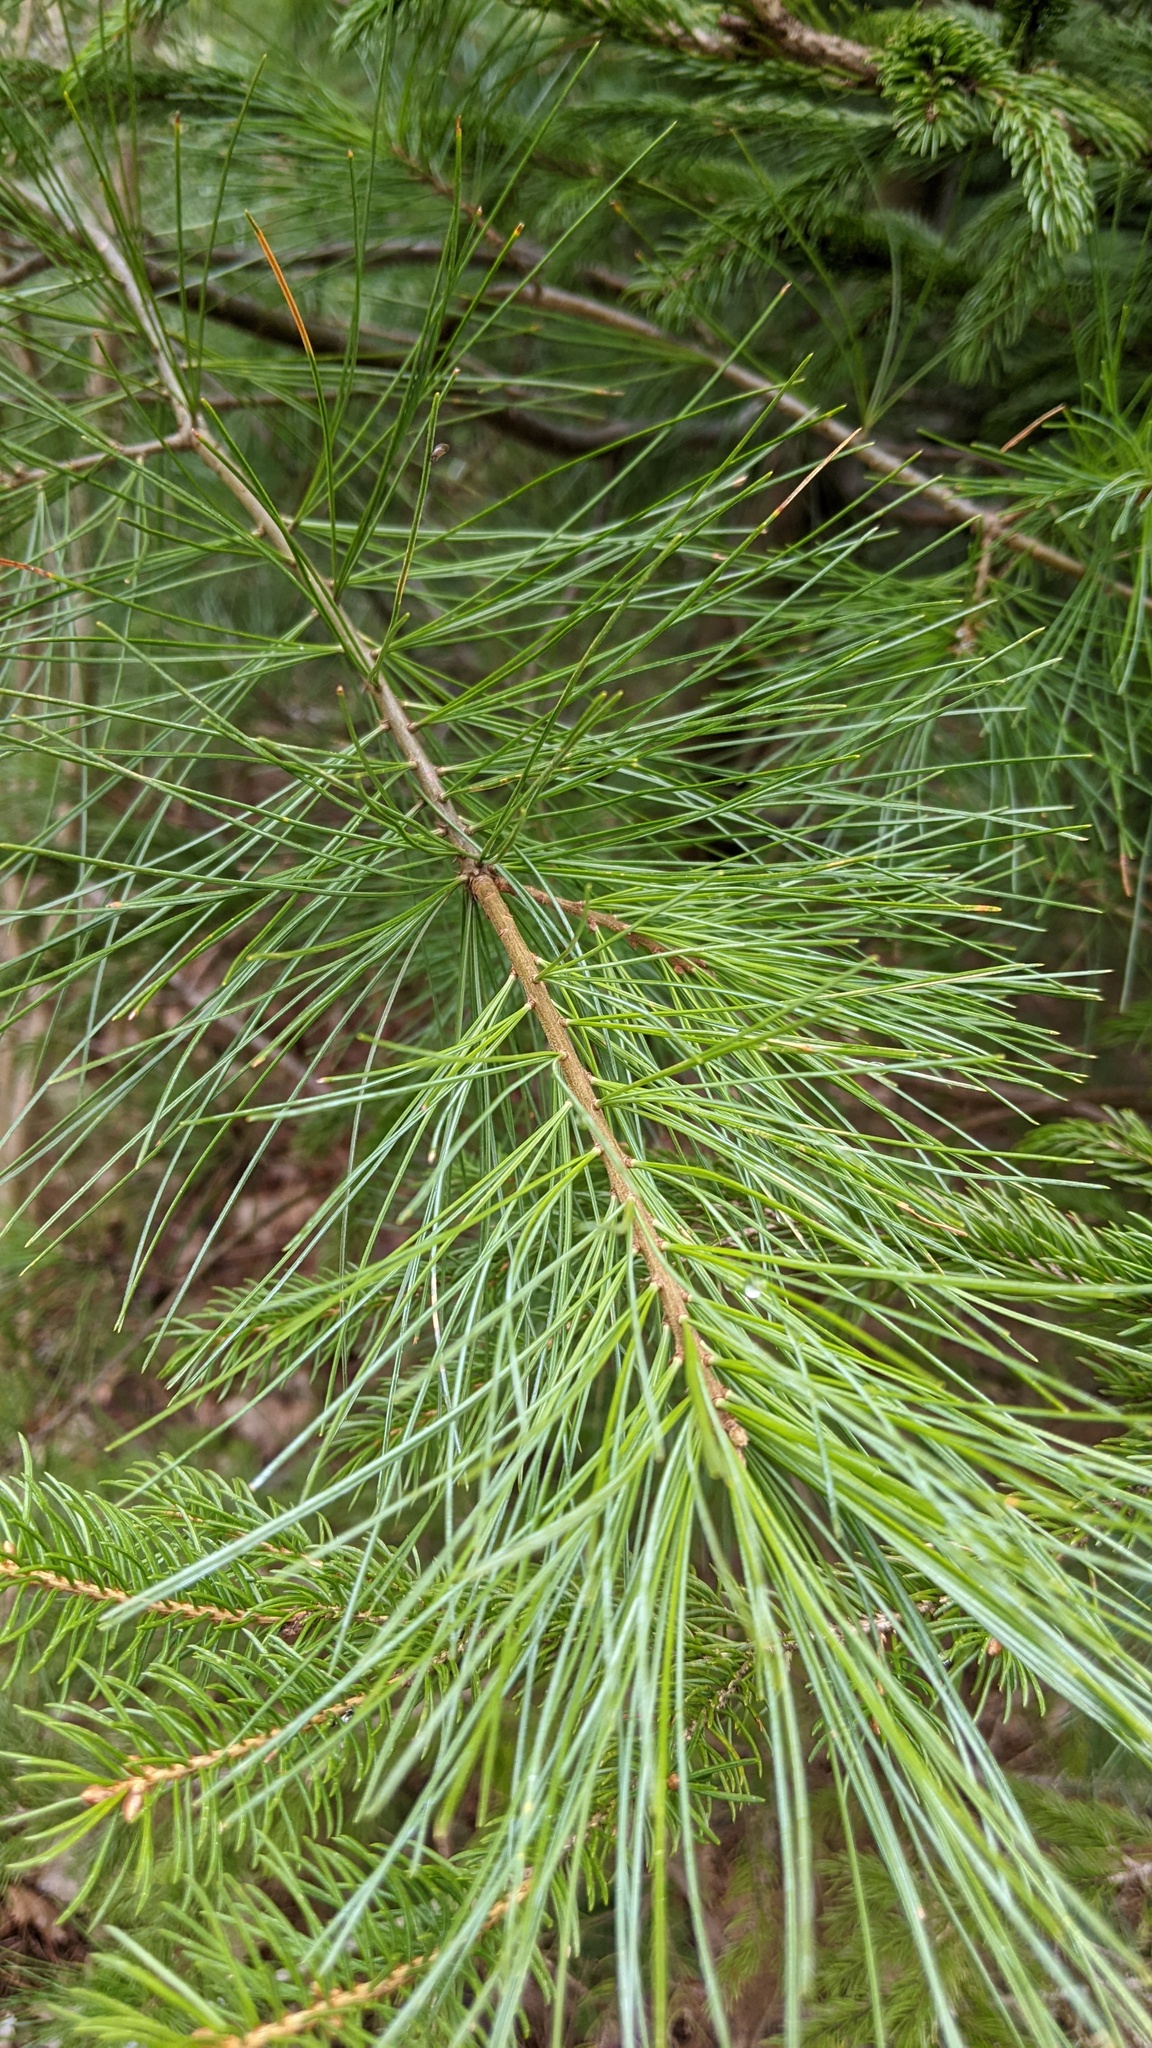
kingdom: Plantae
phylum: Tracheophyta
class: Pinopsida
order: Pinales
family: Pinaceae
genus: Pinus
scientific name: Pinus strobus
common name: Weymouth pine
